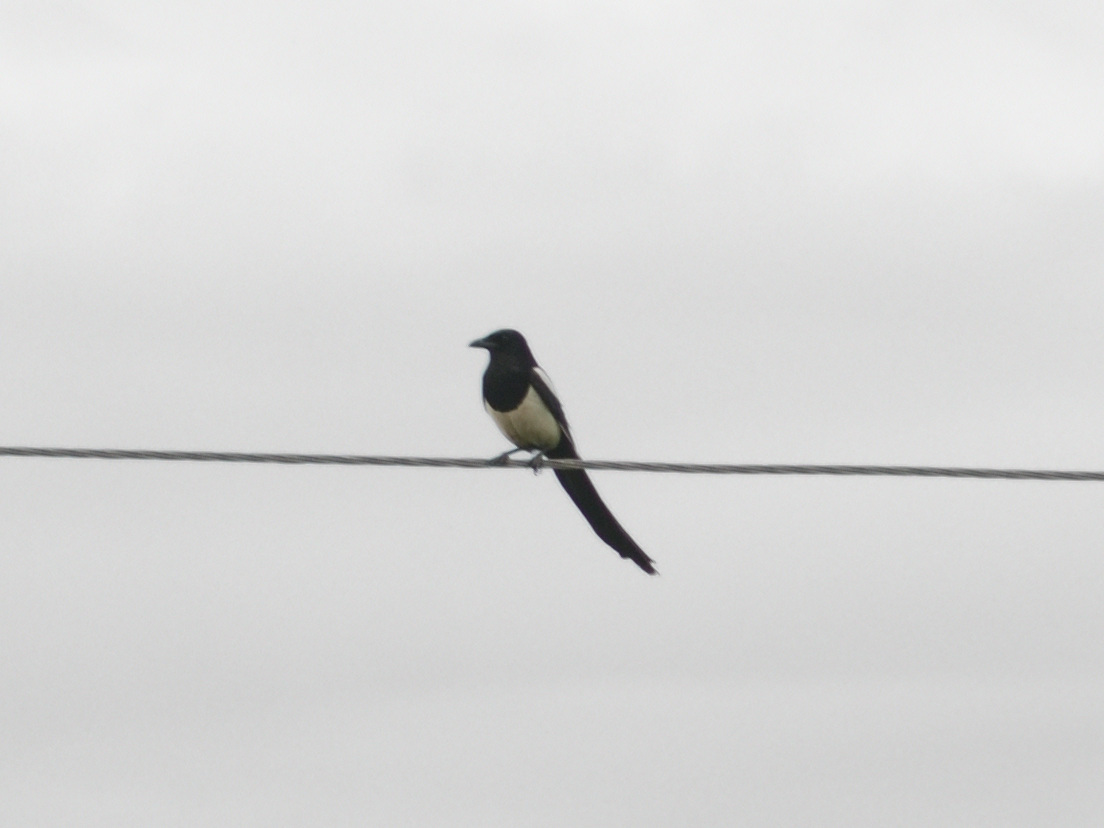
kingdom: Animalia
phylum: Chordata
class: Aves
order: Passeriformes
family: Corvidae
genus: Pica
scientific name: Pica pica
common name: Eurasian magpie
